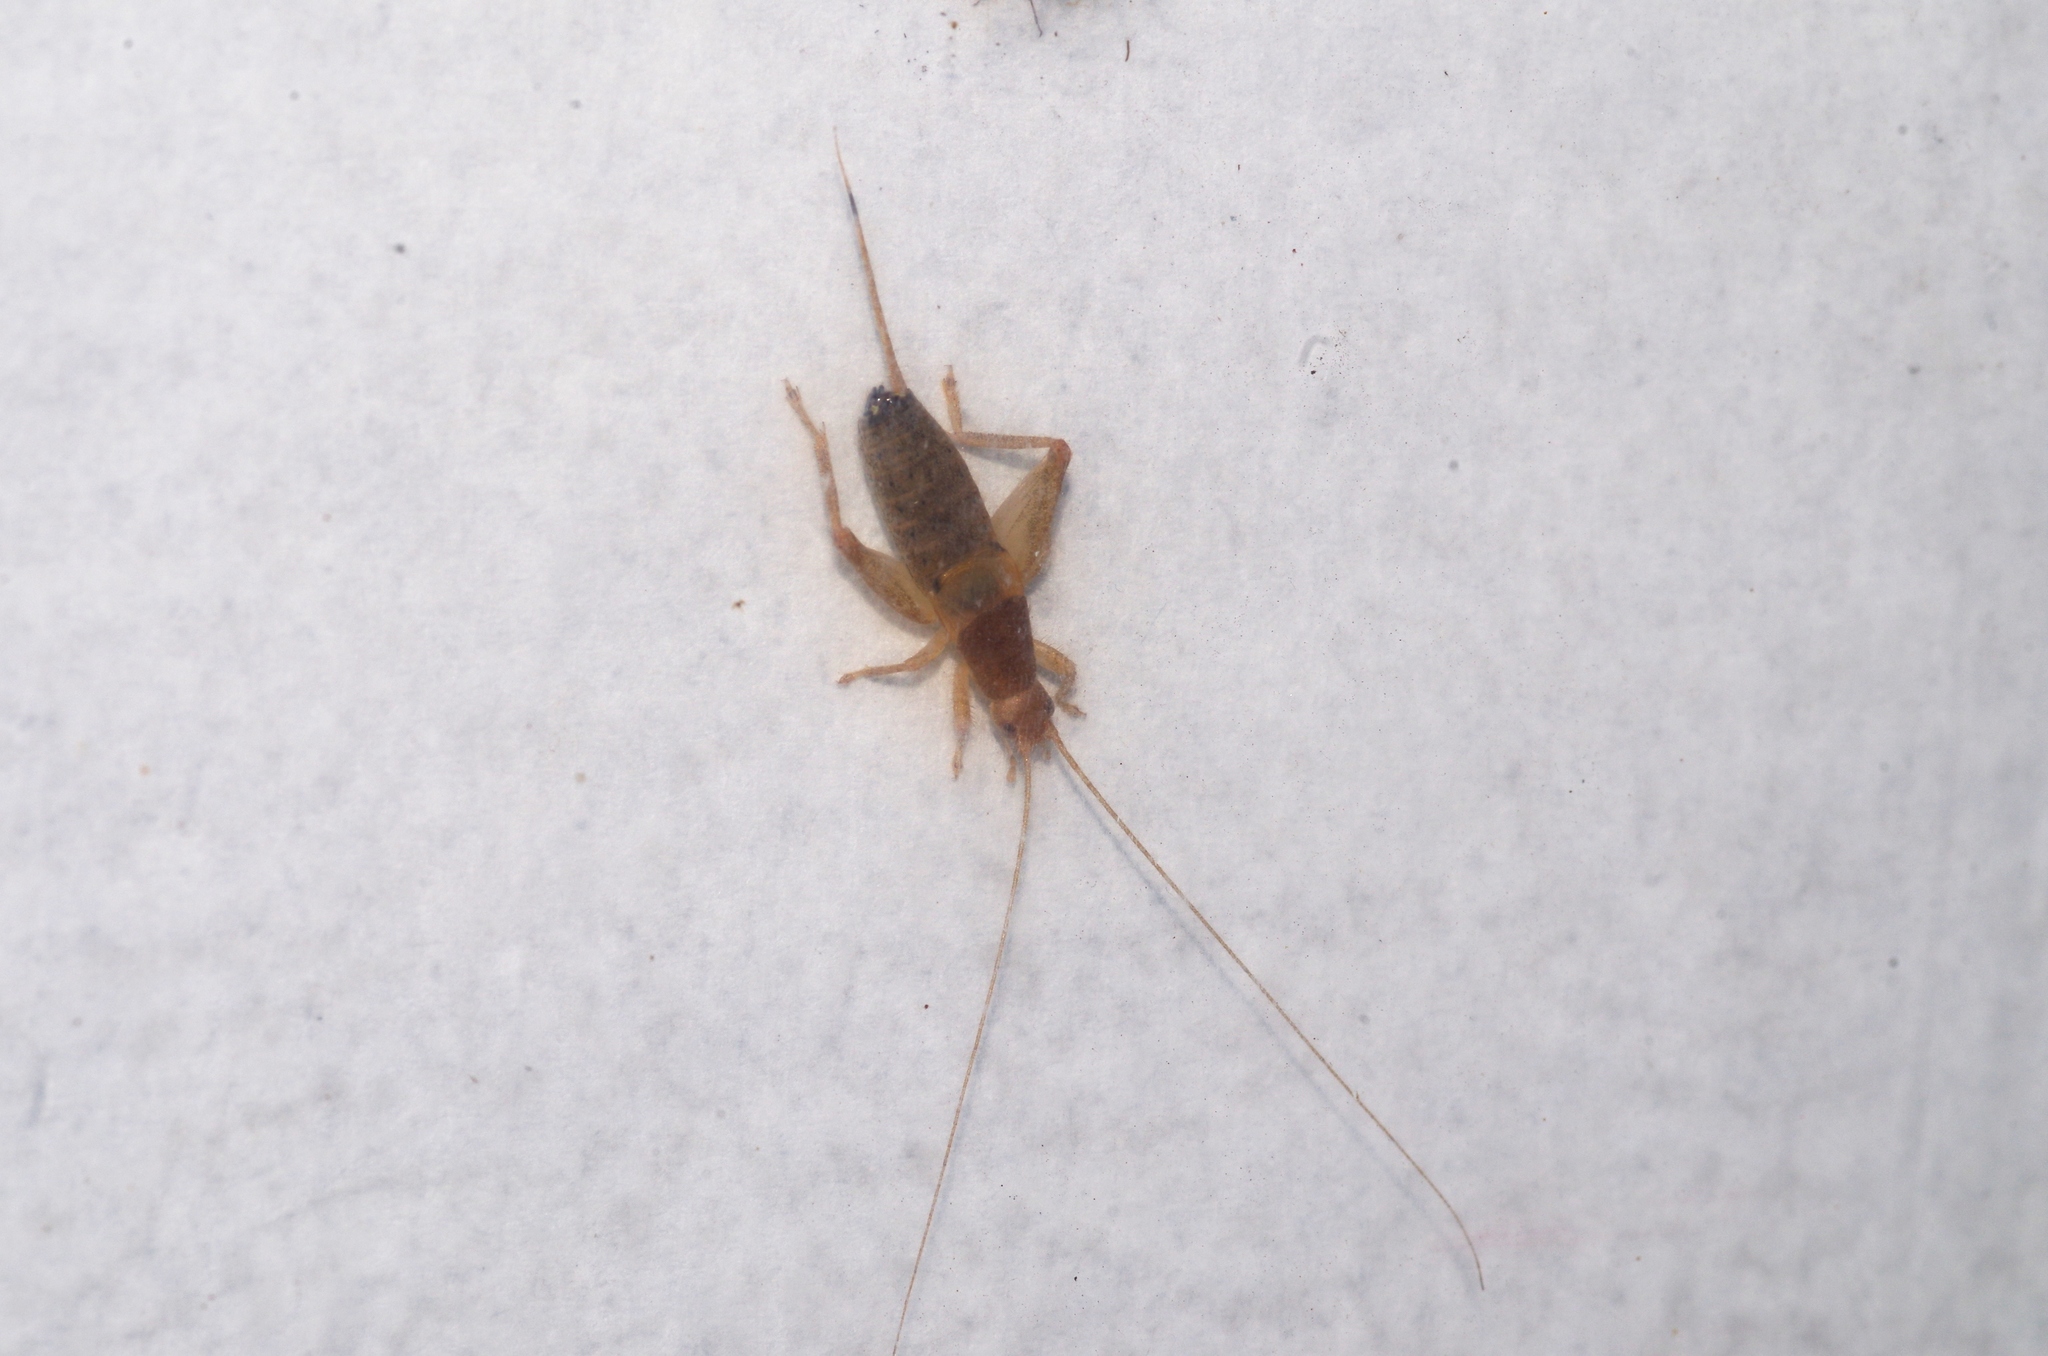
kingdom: Animalia
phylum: Arthropoda
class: Insecta
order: Orthoptera
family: Mogoplistidae
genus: Ornebius
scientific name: Ornebius bimaculatus
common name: Cricket
